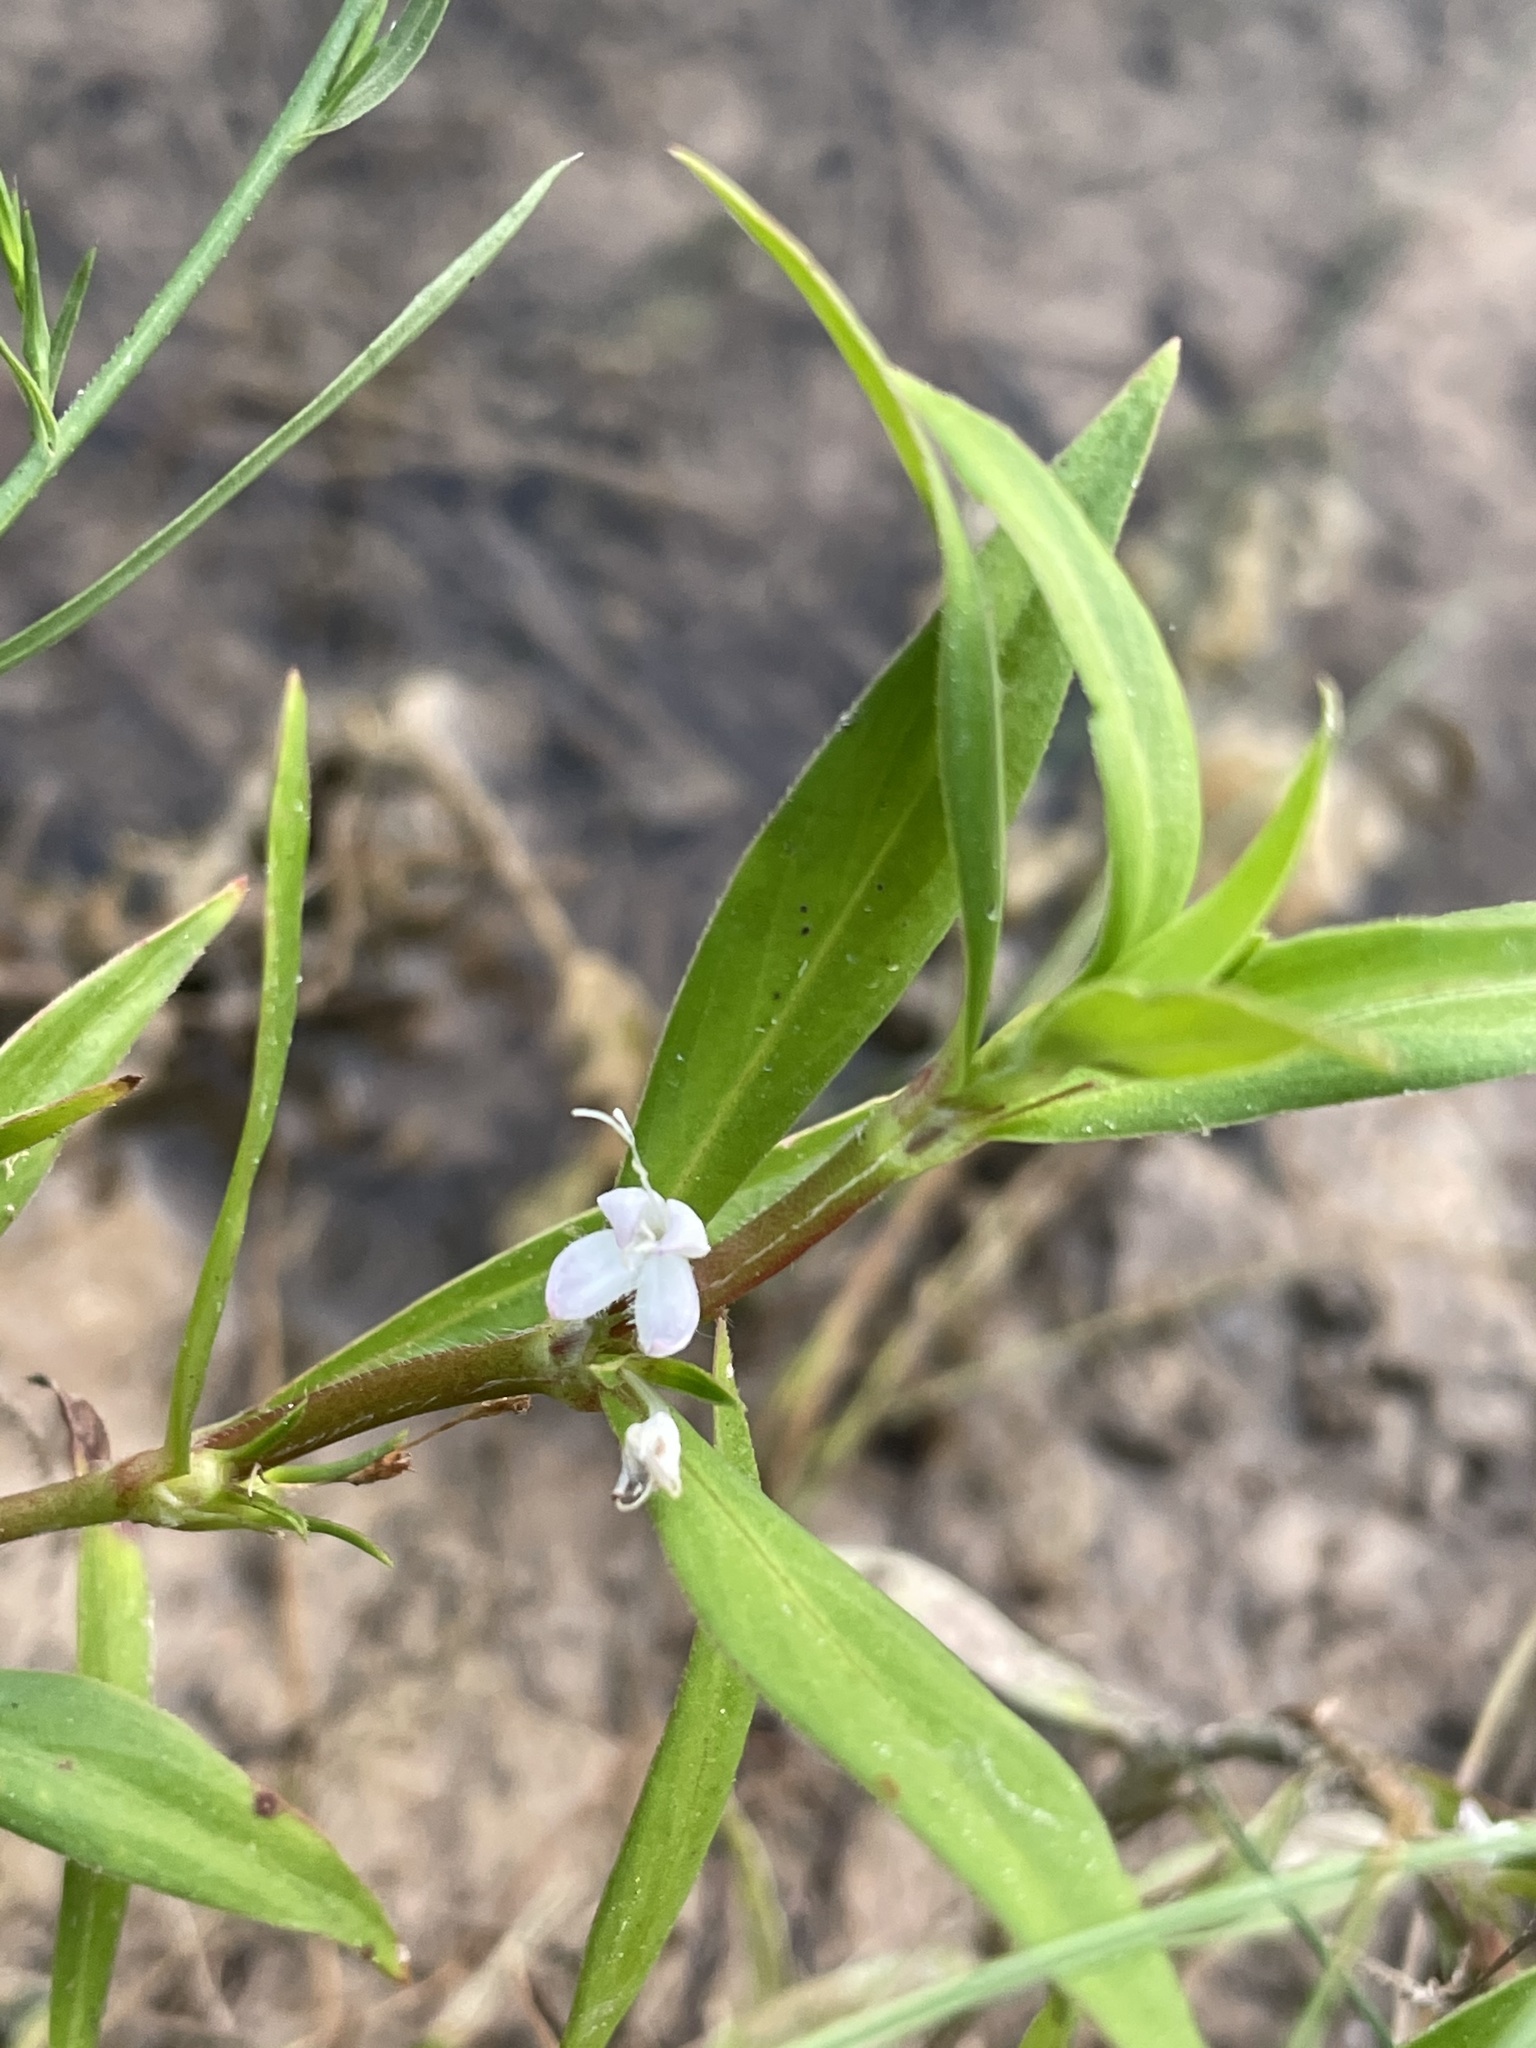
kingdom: Plantae
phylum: Tracheophyta
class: Magnoliopsida
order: Gentianales
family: Rubiaceae
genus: Diodia
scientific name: Diodia virginiana
